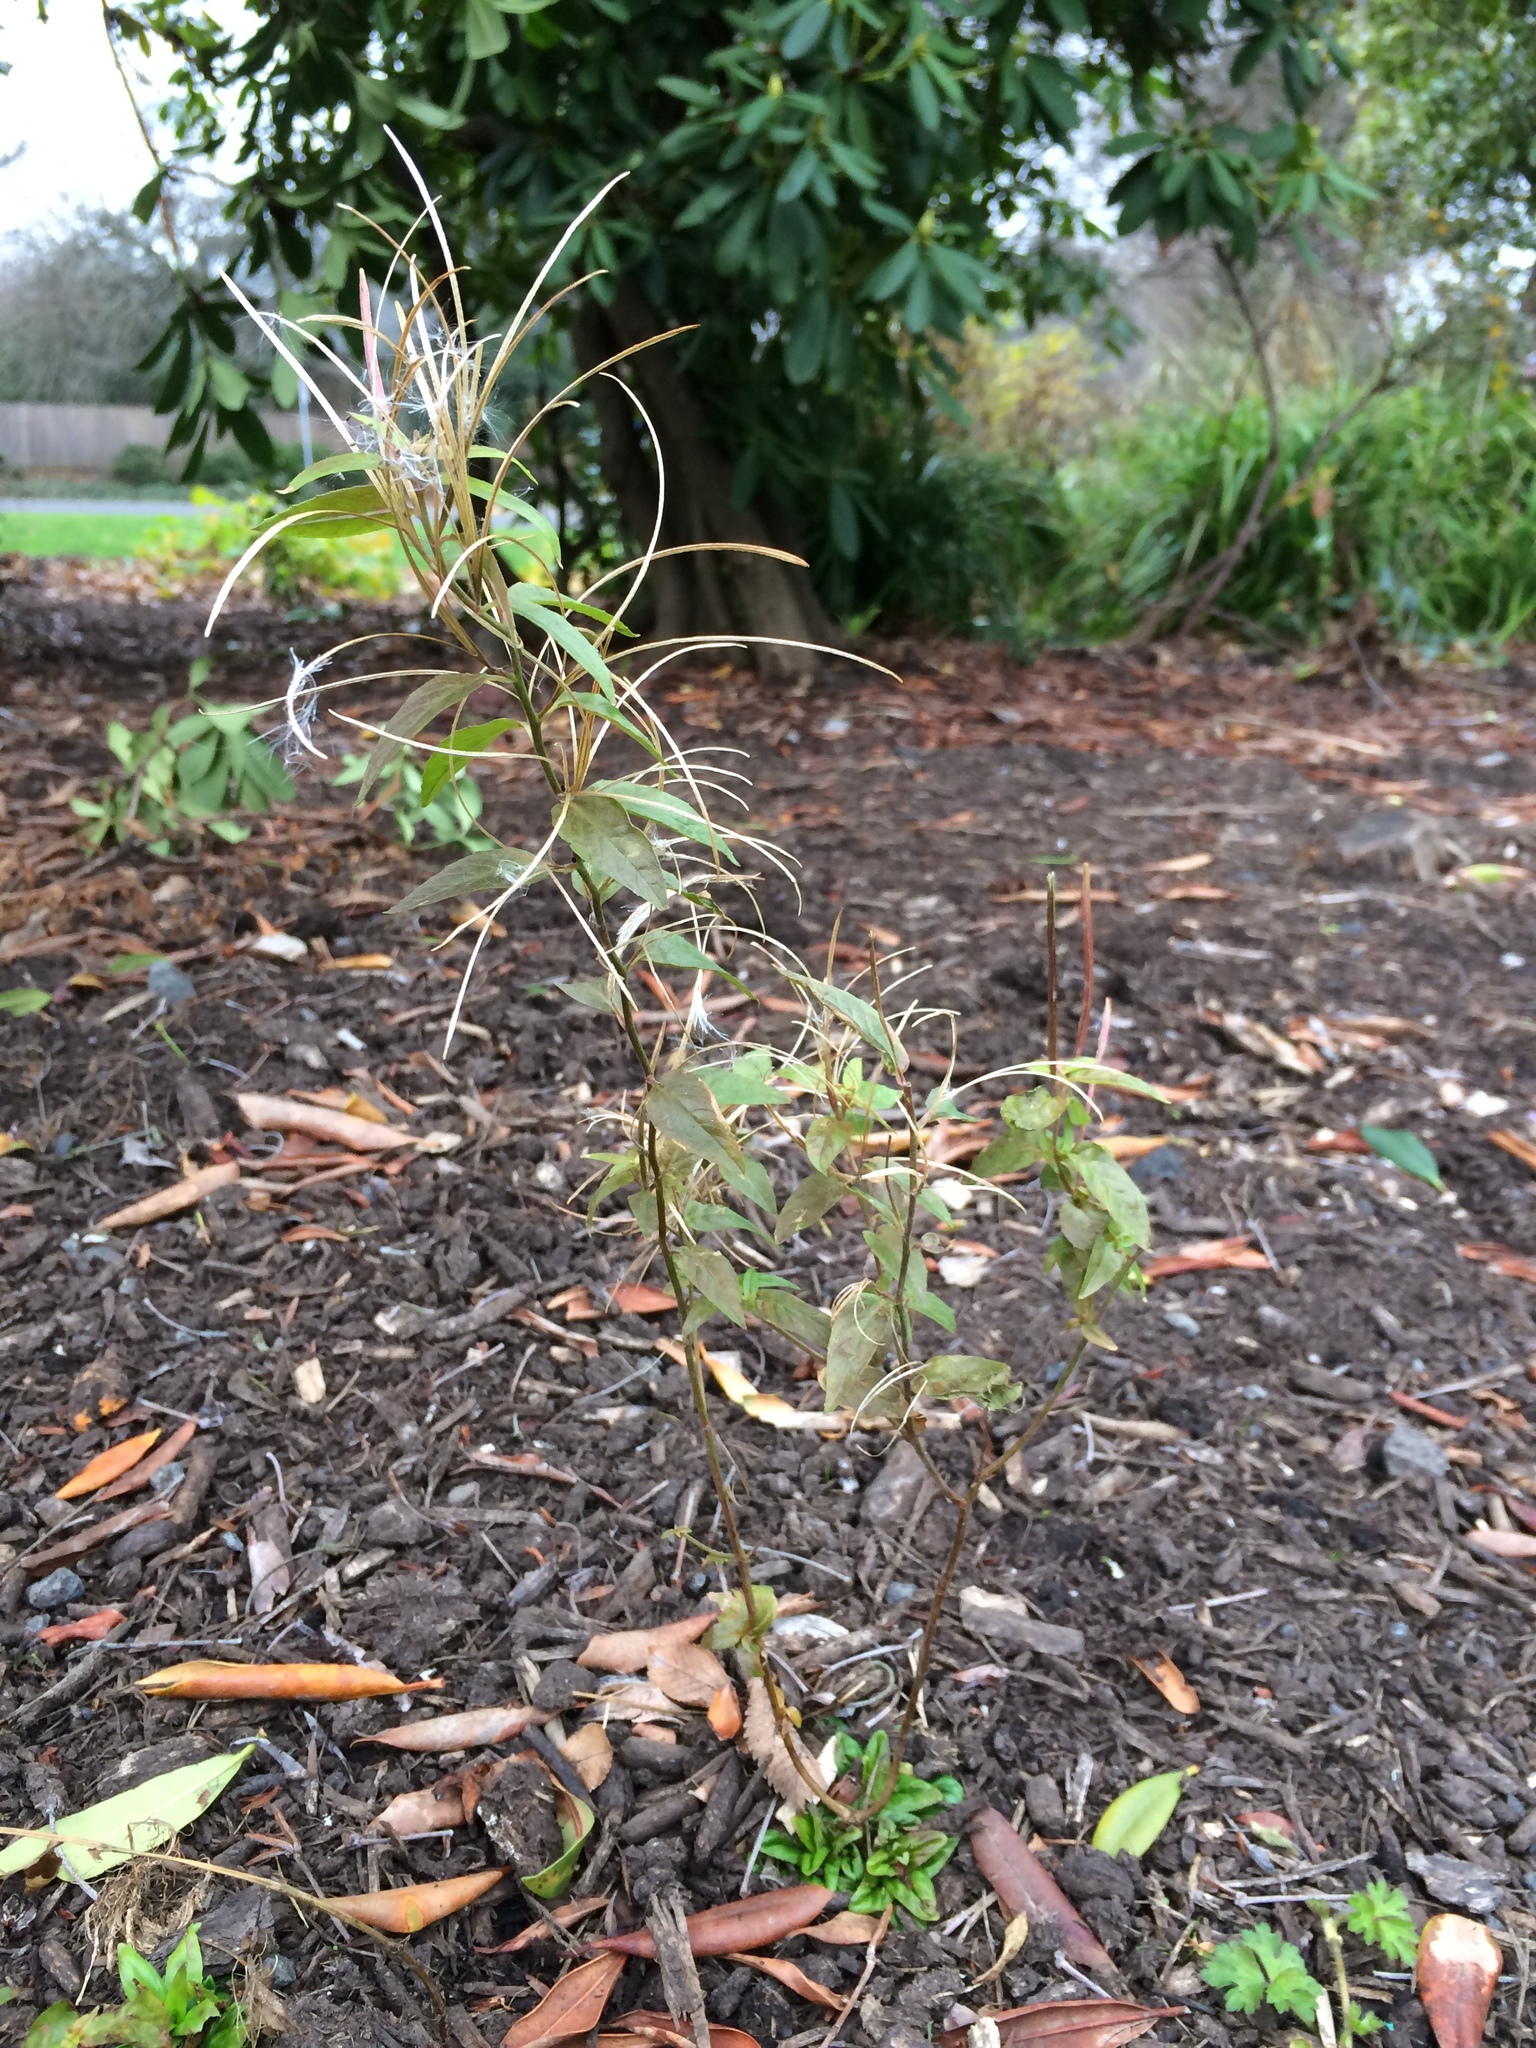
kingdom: Plantae
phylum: Tracheophyta
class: Magnoliopsida
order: Myrtales
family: Onagraceae
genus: Epilobium
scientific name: Epilobium ciliatum
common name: American willowherb
